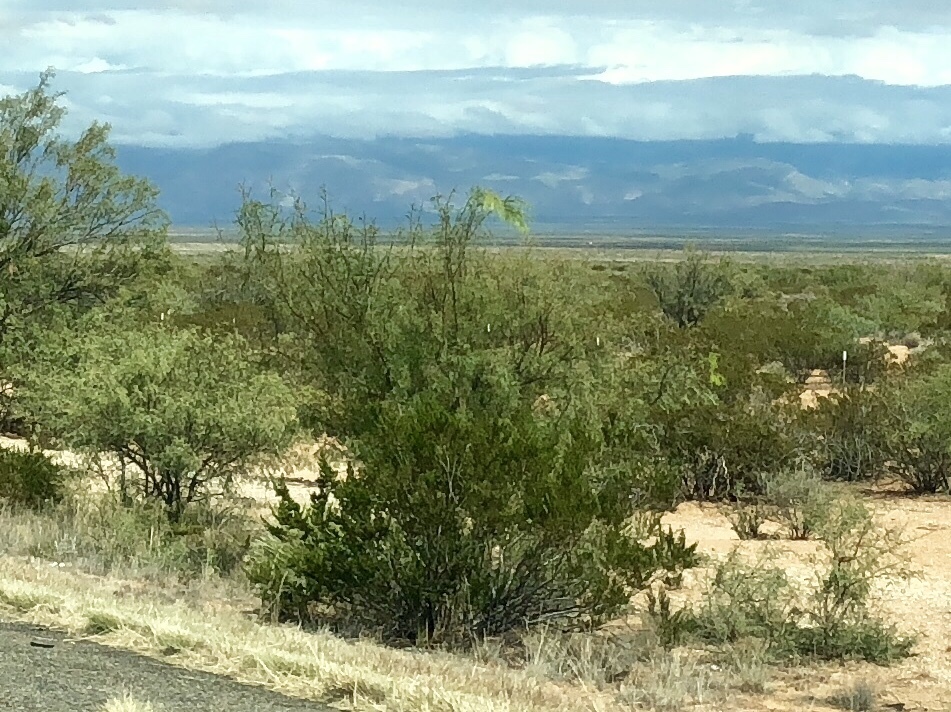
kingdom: Plantae
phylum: Tracheophyta
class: Magnoliopsida
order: Zygophyllales
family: Zygophyllaceae
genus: Larrea
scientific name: Larrea tridentata
